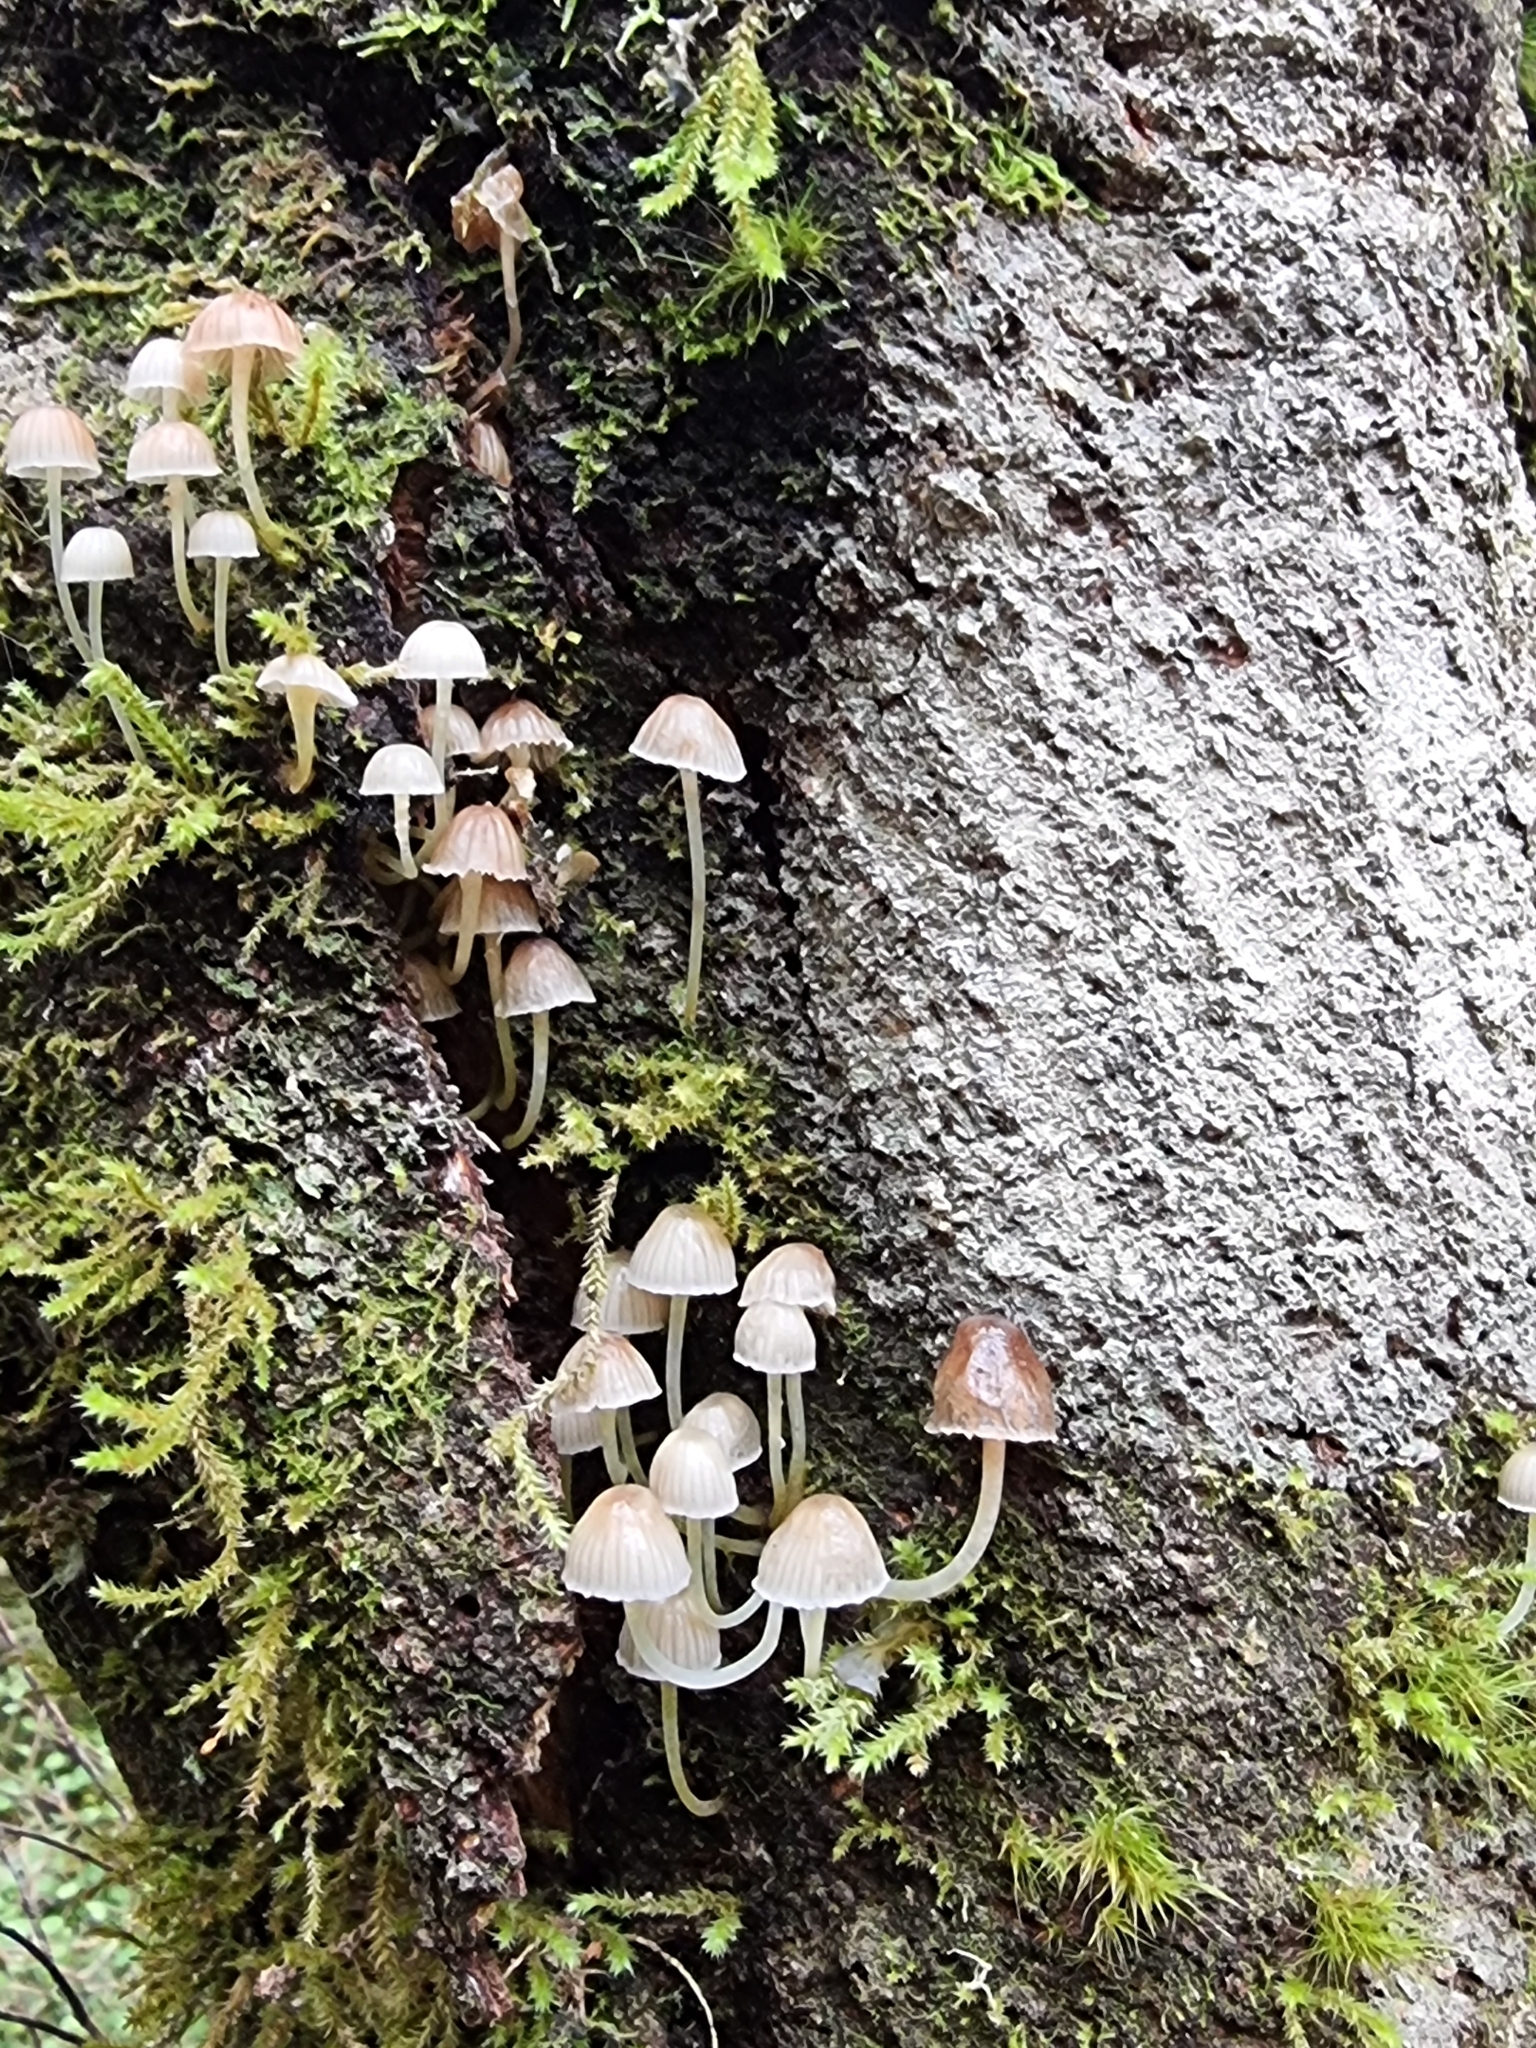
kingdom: Fungi
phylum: Basidiomycota
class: Agaricomycetes
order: Agaricales
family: Mycenaceae
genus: Mycena
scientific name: Mycena subviscosa
